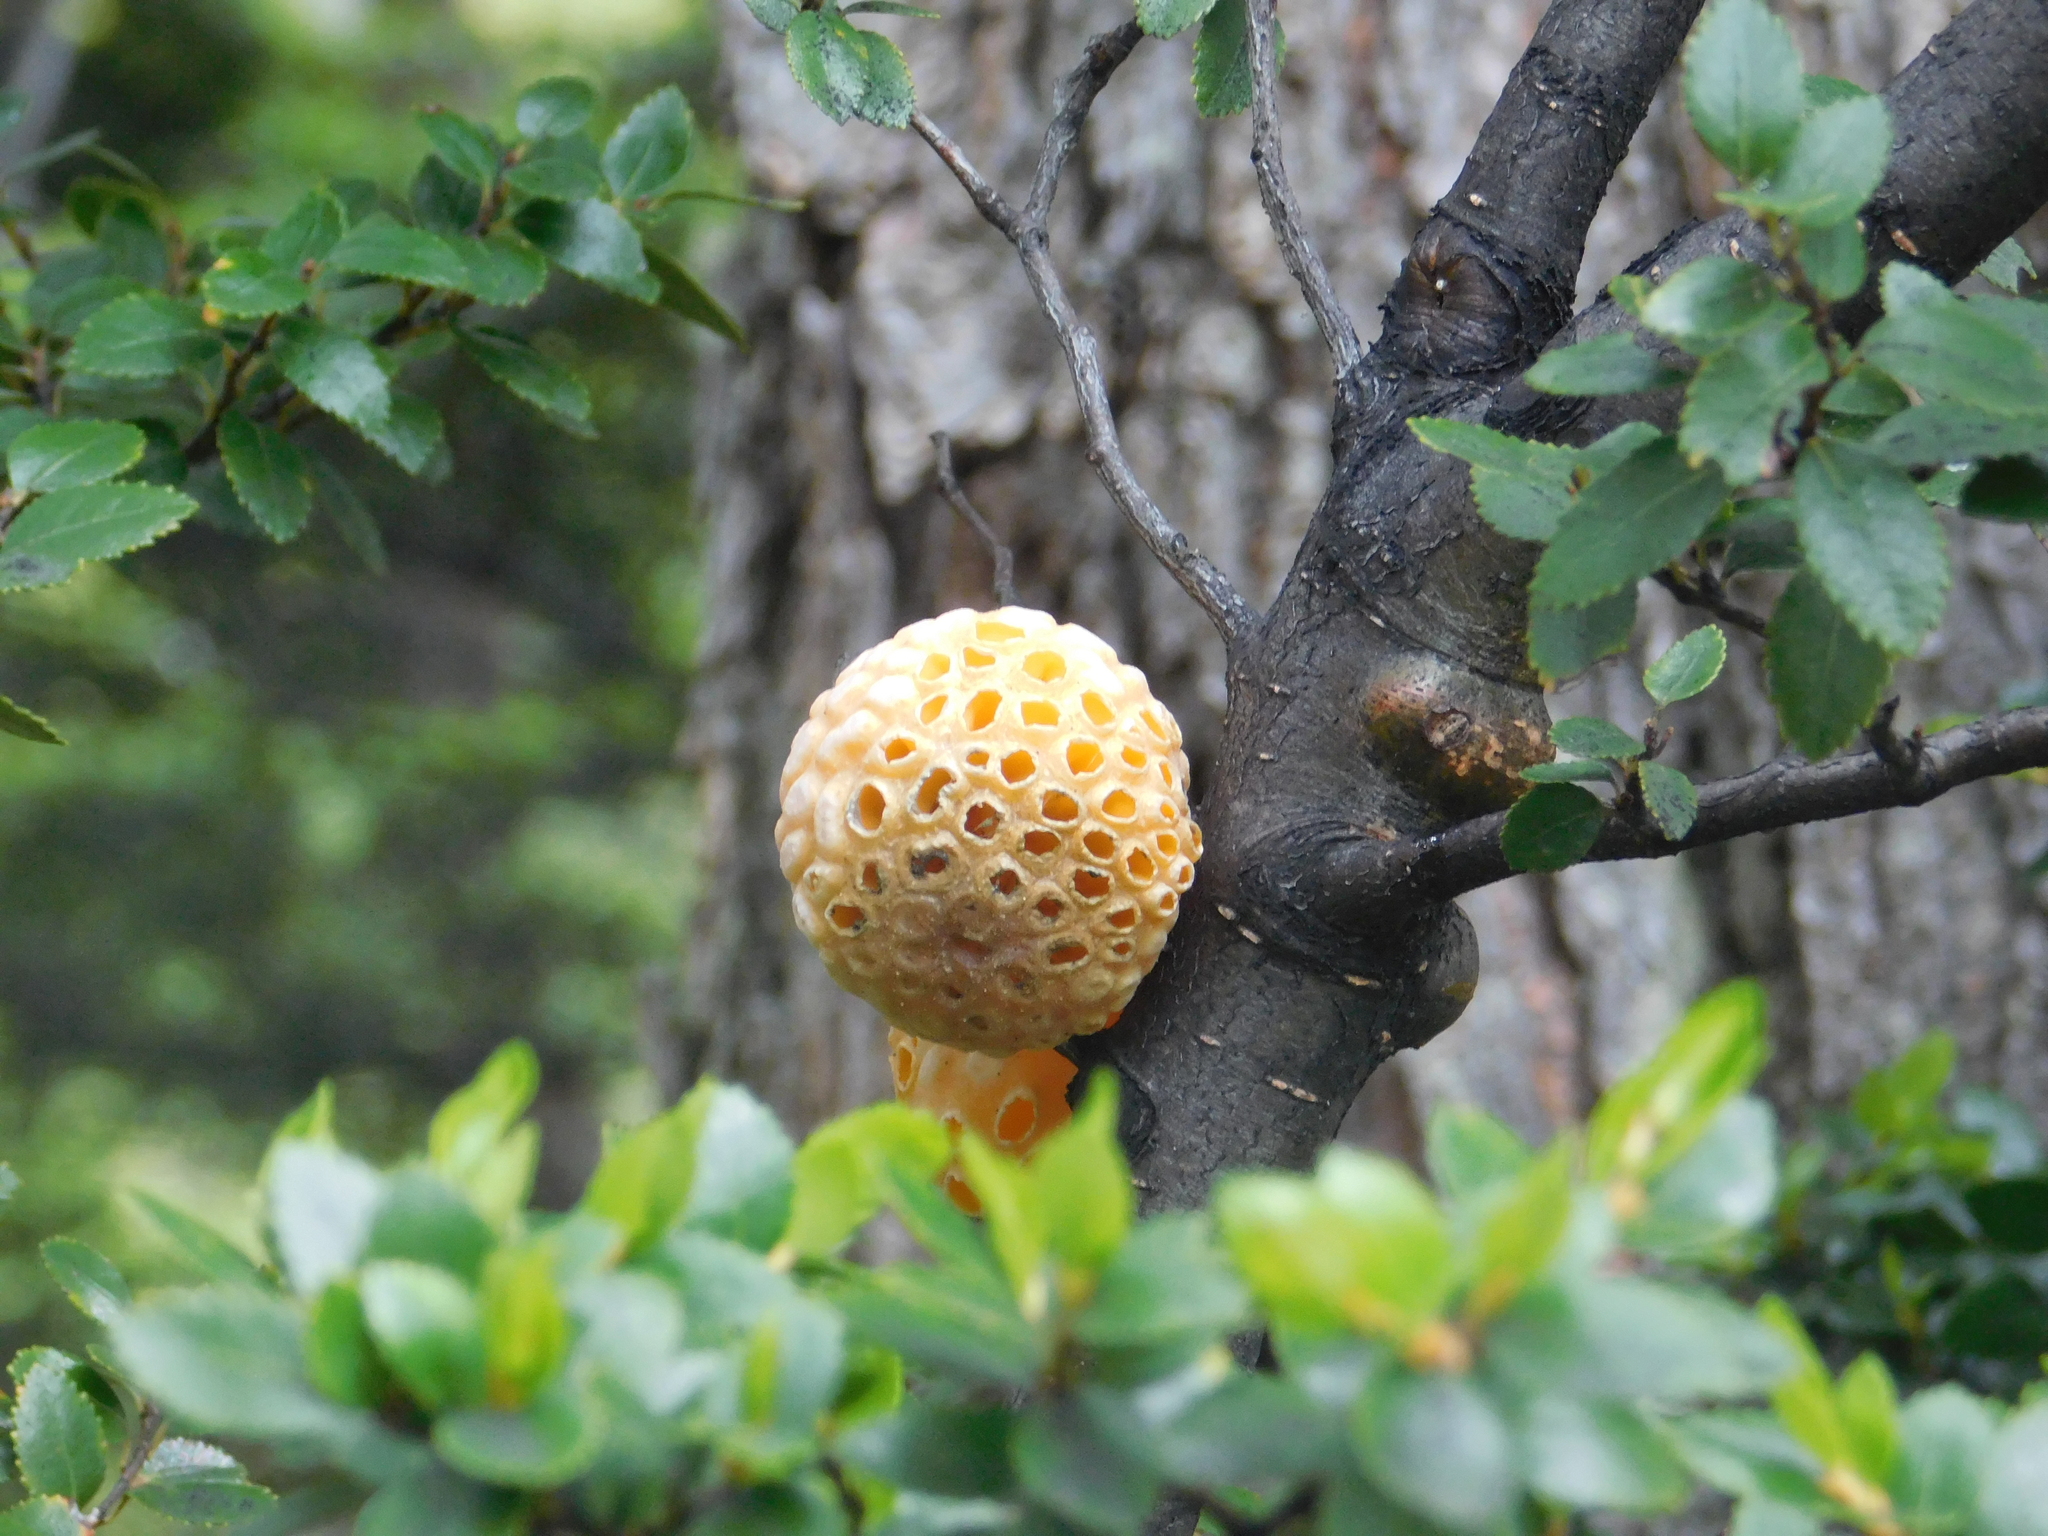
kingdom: Fungi
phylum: Ascomycota
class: Leotiomycetes
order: Cyttariales
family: Cyttariaceae
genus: Cyttaria
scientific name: Cyttaria hariotii
